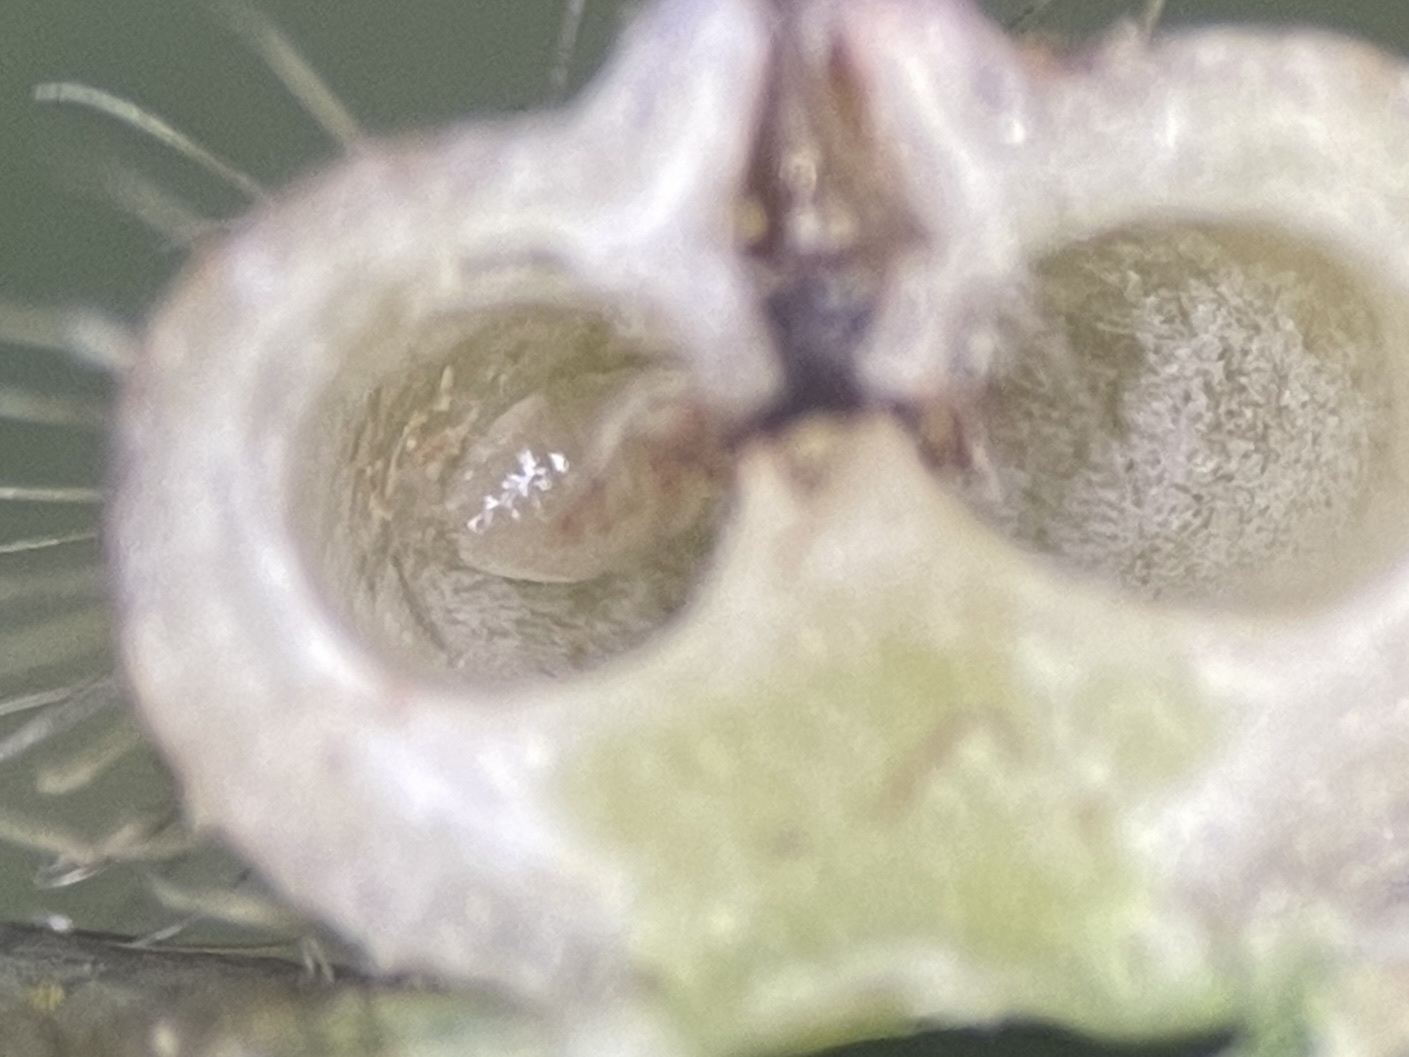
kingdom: Animalia
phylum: Arthropoda
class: Insecta
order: Diptera
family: Cecidomyiidae
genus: Caryomyia
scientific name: Caryomyia thompsoni
